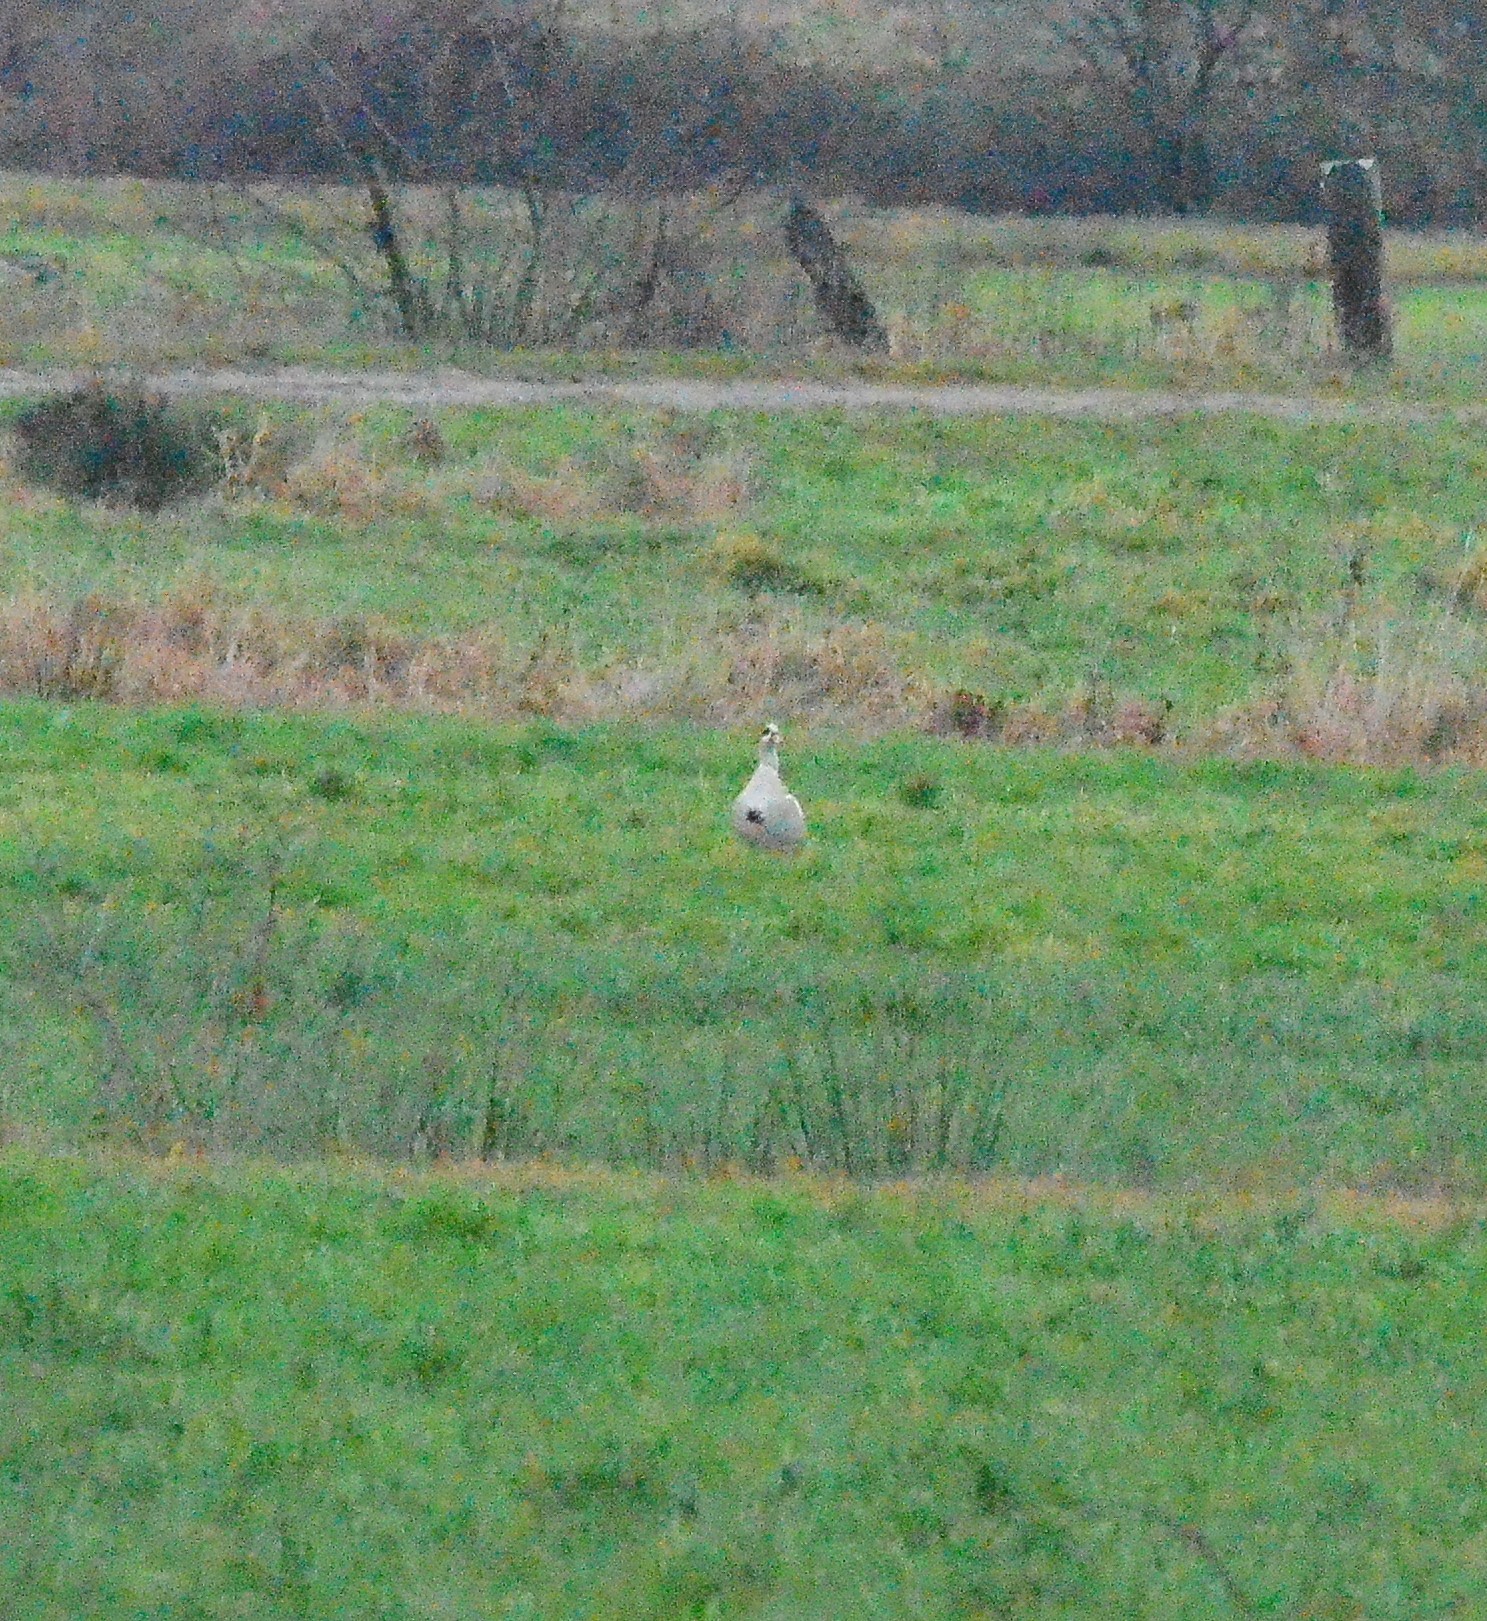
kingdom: Animalia
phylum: Chordata
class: Aves
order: Anseriformes
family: Anatidae
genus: Alopochen
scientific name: Alopochen aegyptiaca
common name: Egyptian goose
